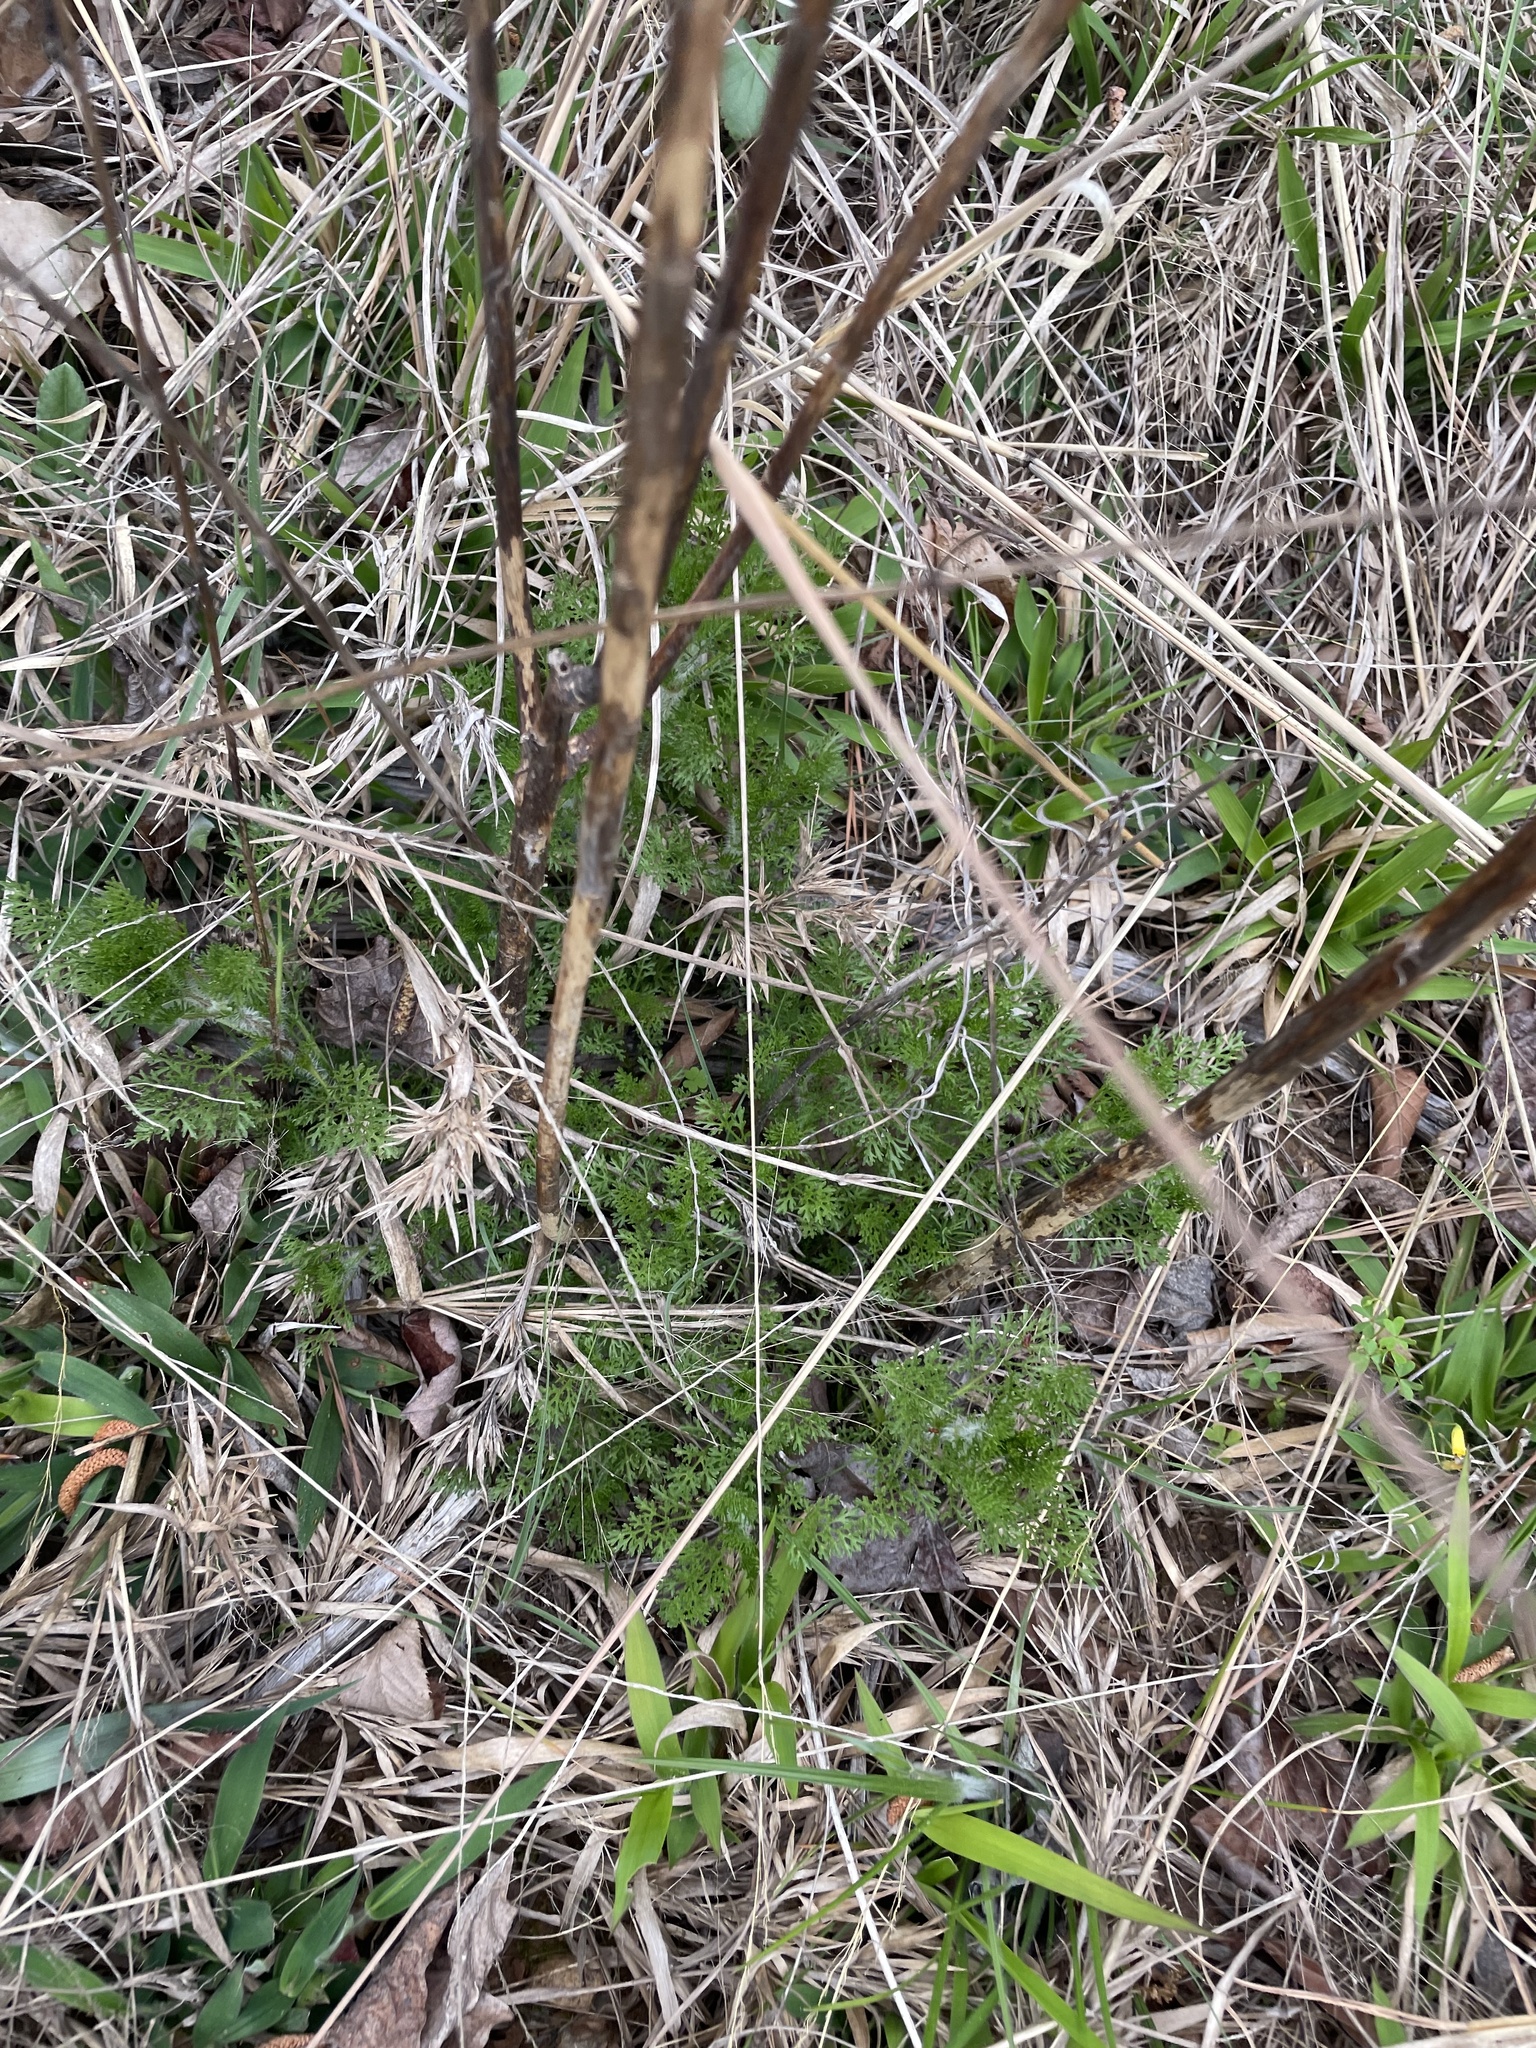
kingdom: Plantae
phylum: Tracheophyta
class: Magnoliopsida
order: Asterales
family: Asteraceae
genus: Eupatorium
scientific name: Eupatorium capillifolium
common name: Dog-fennel
